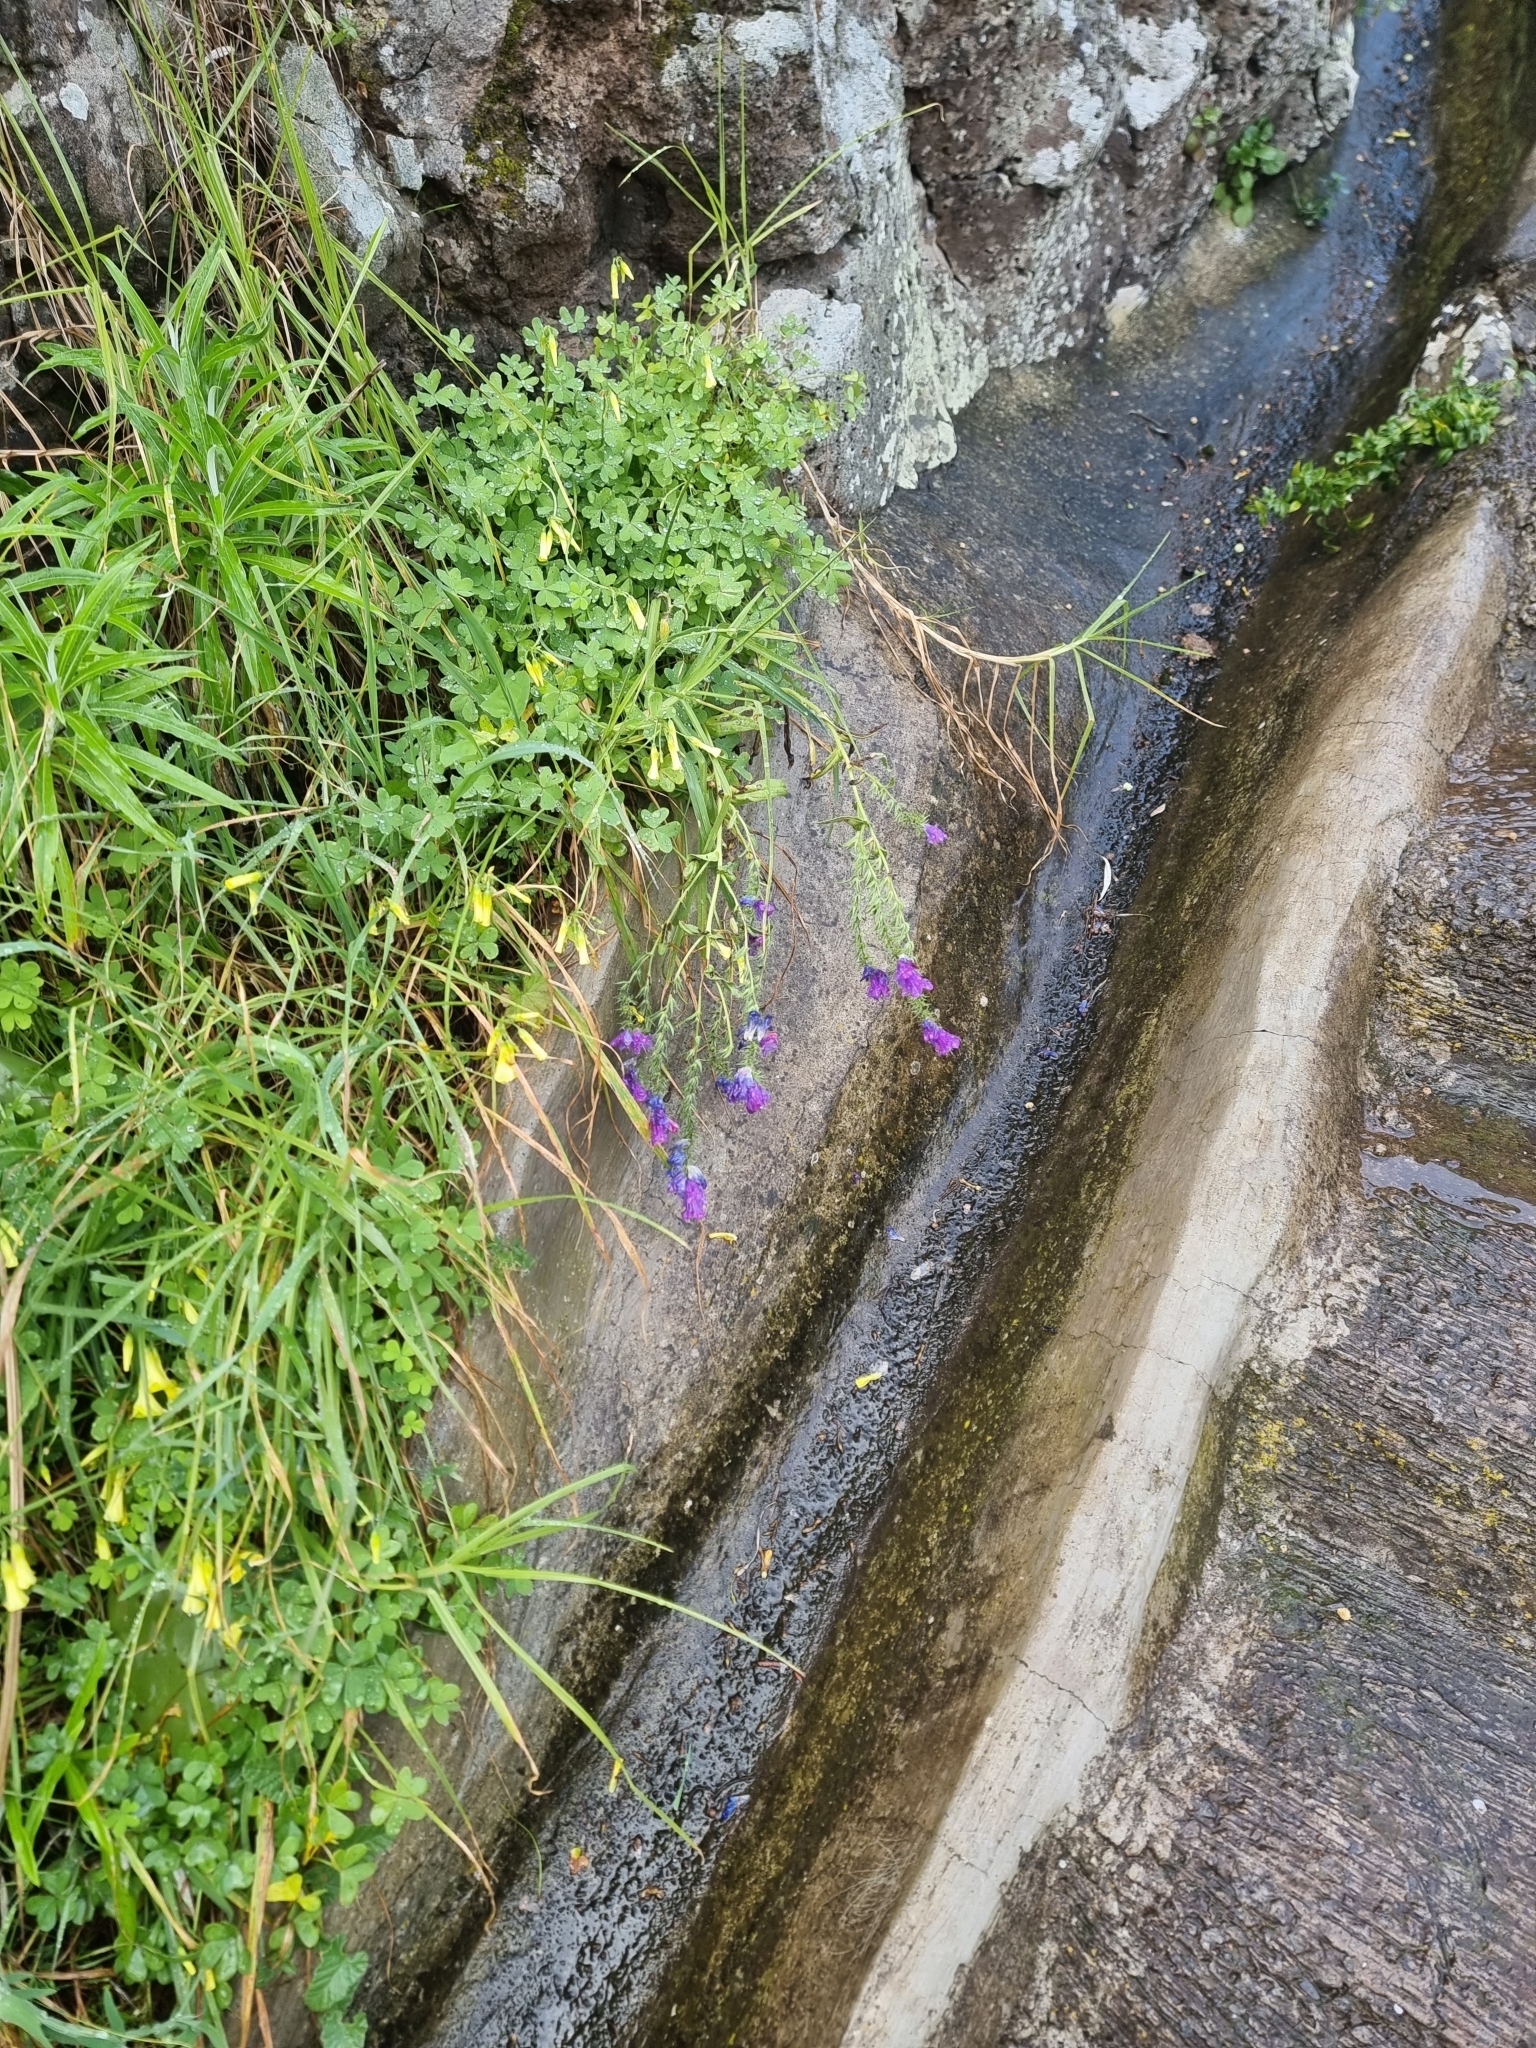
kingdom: Plantae
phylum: Tracheophyta
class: Magnoliopsida
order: Boraginales
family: Boraginaceae
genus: Echium
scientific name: Echium plantagineum
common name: Purple viper's-bugloss
